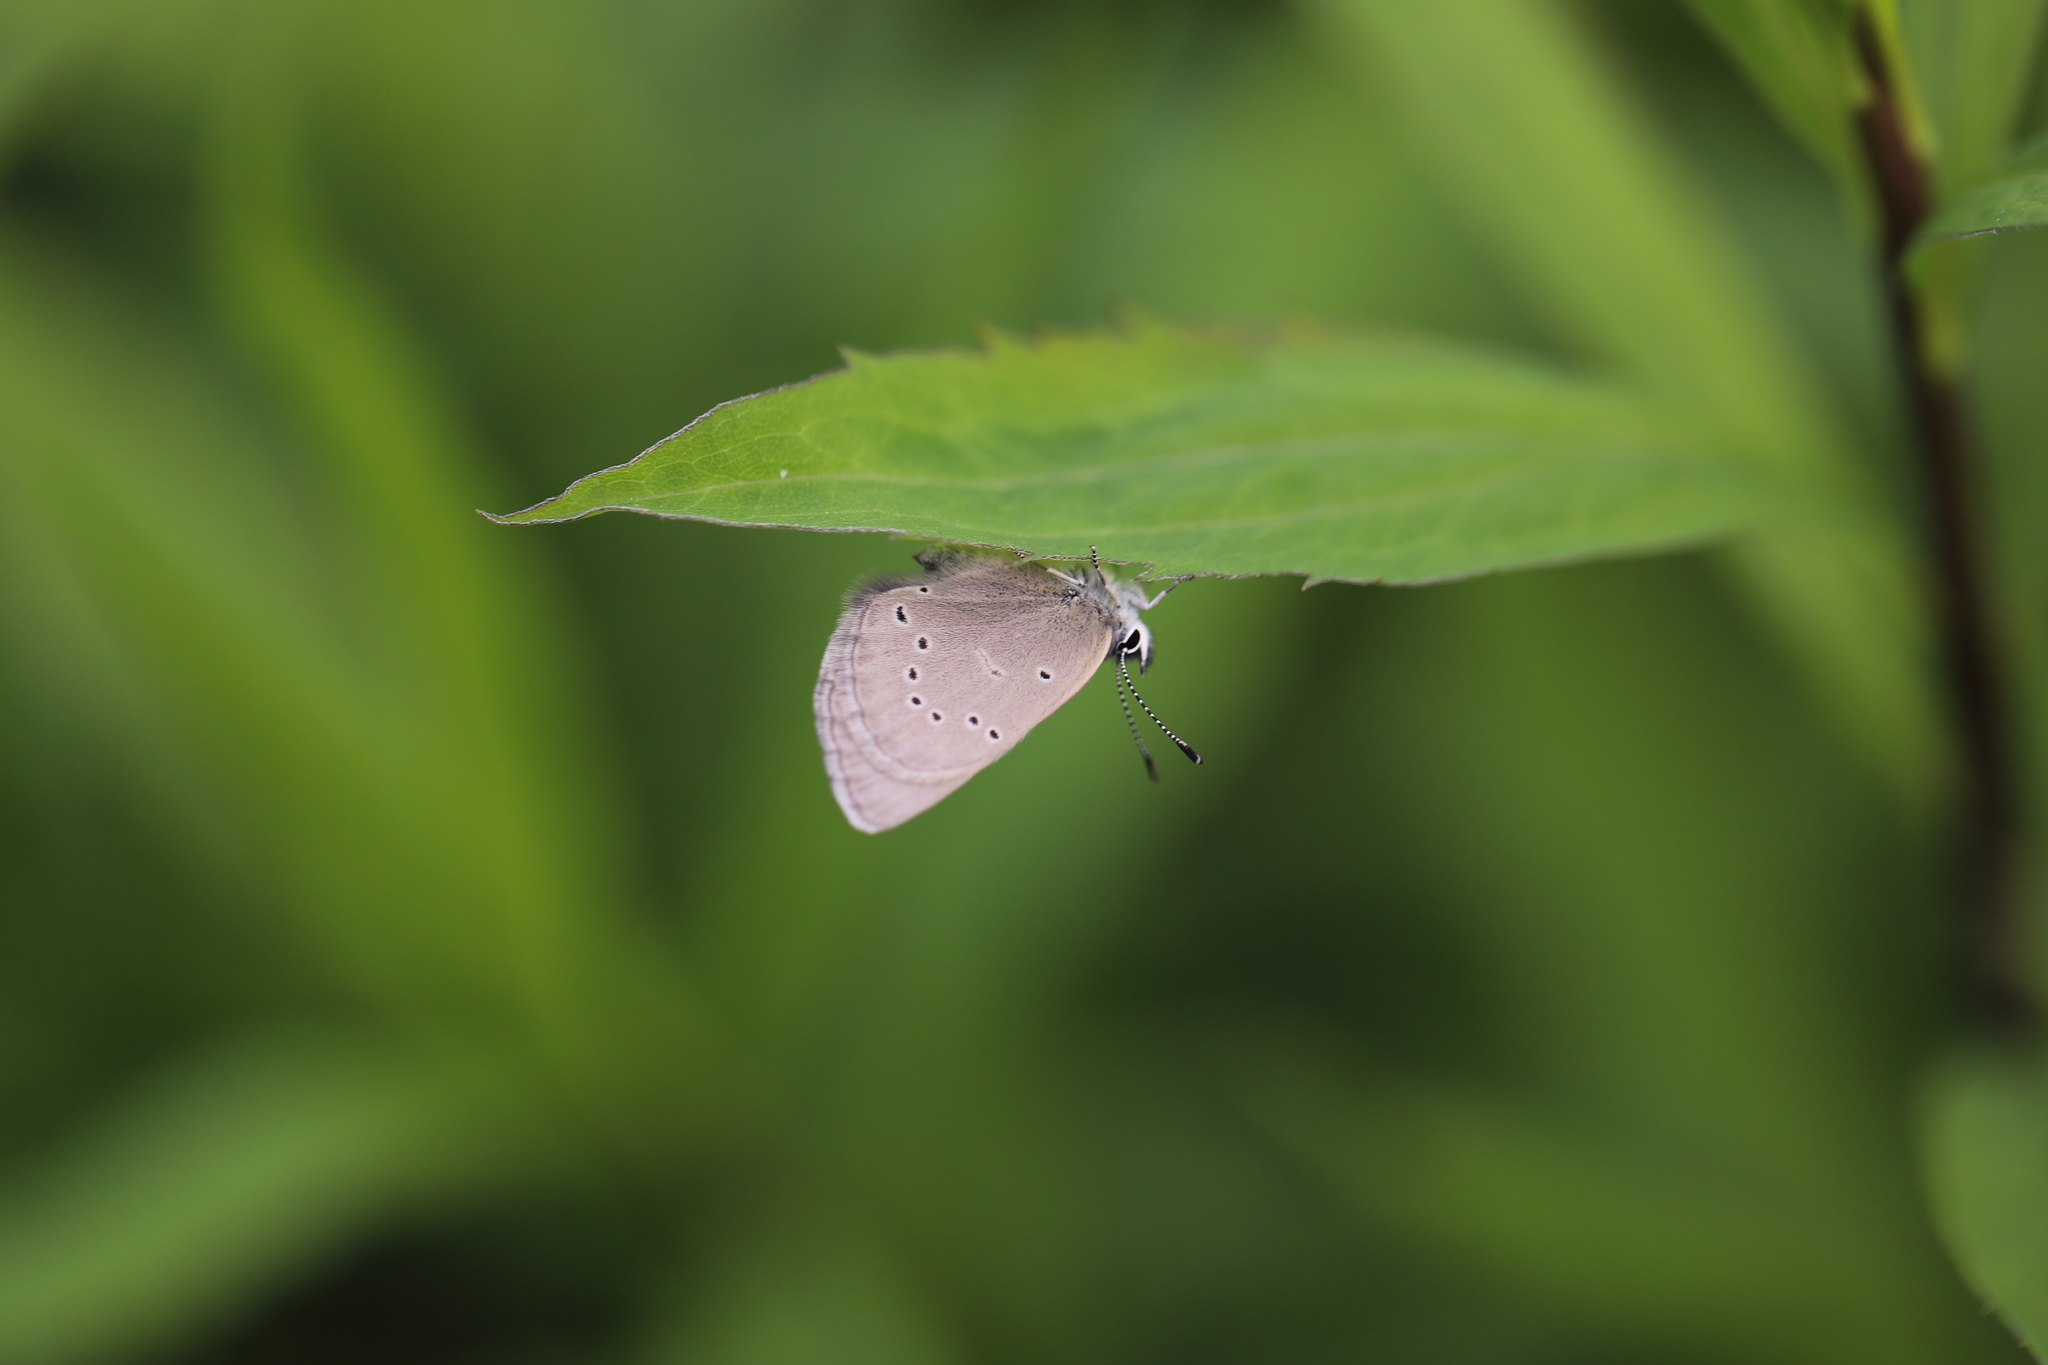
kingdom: Animalia
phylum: Arthropoda
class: Insecta
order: Lepidoptera
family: Lycaenidae
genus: Glaucopsyche
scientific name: Glaucopsyche lygdamus
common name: Silvery blue
